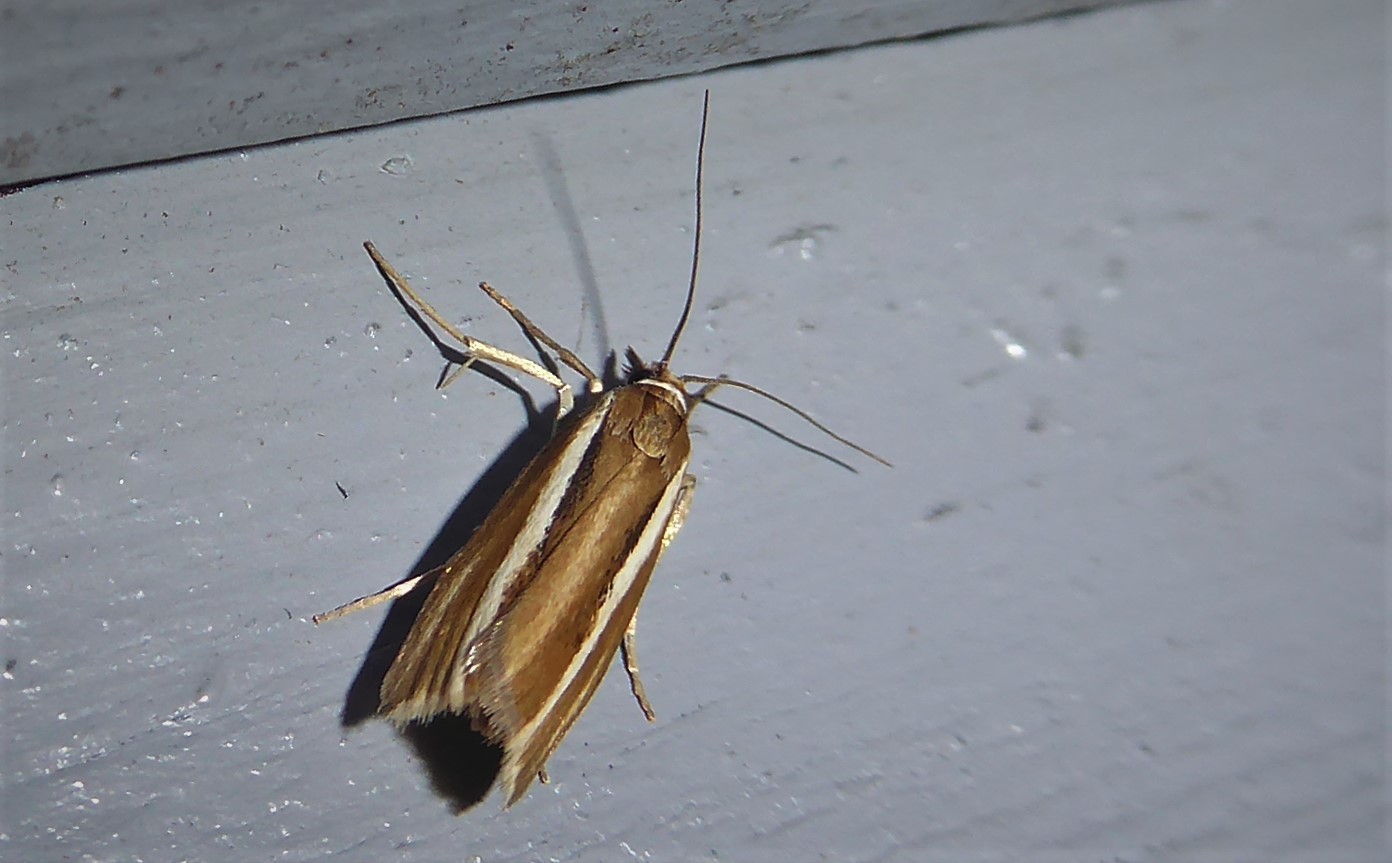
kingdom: Animalia
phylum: Arthropoda
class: Insecta
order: Lepidoptera
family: Crambidae
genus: Orocrambus
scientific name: Orocrambus aethonellus
